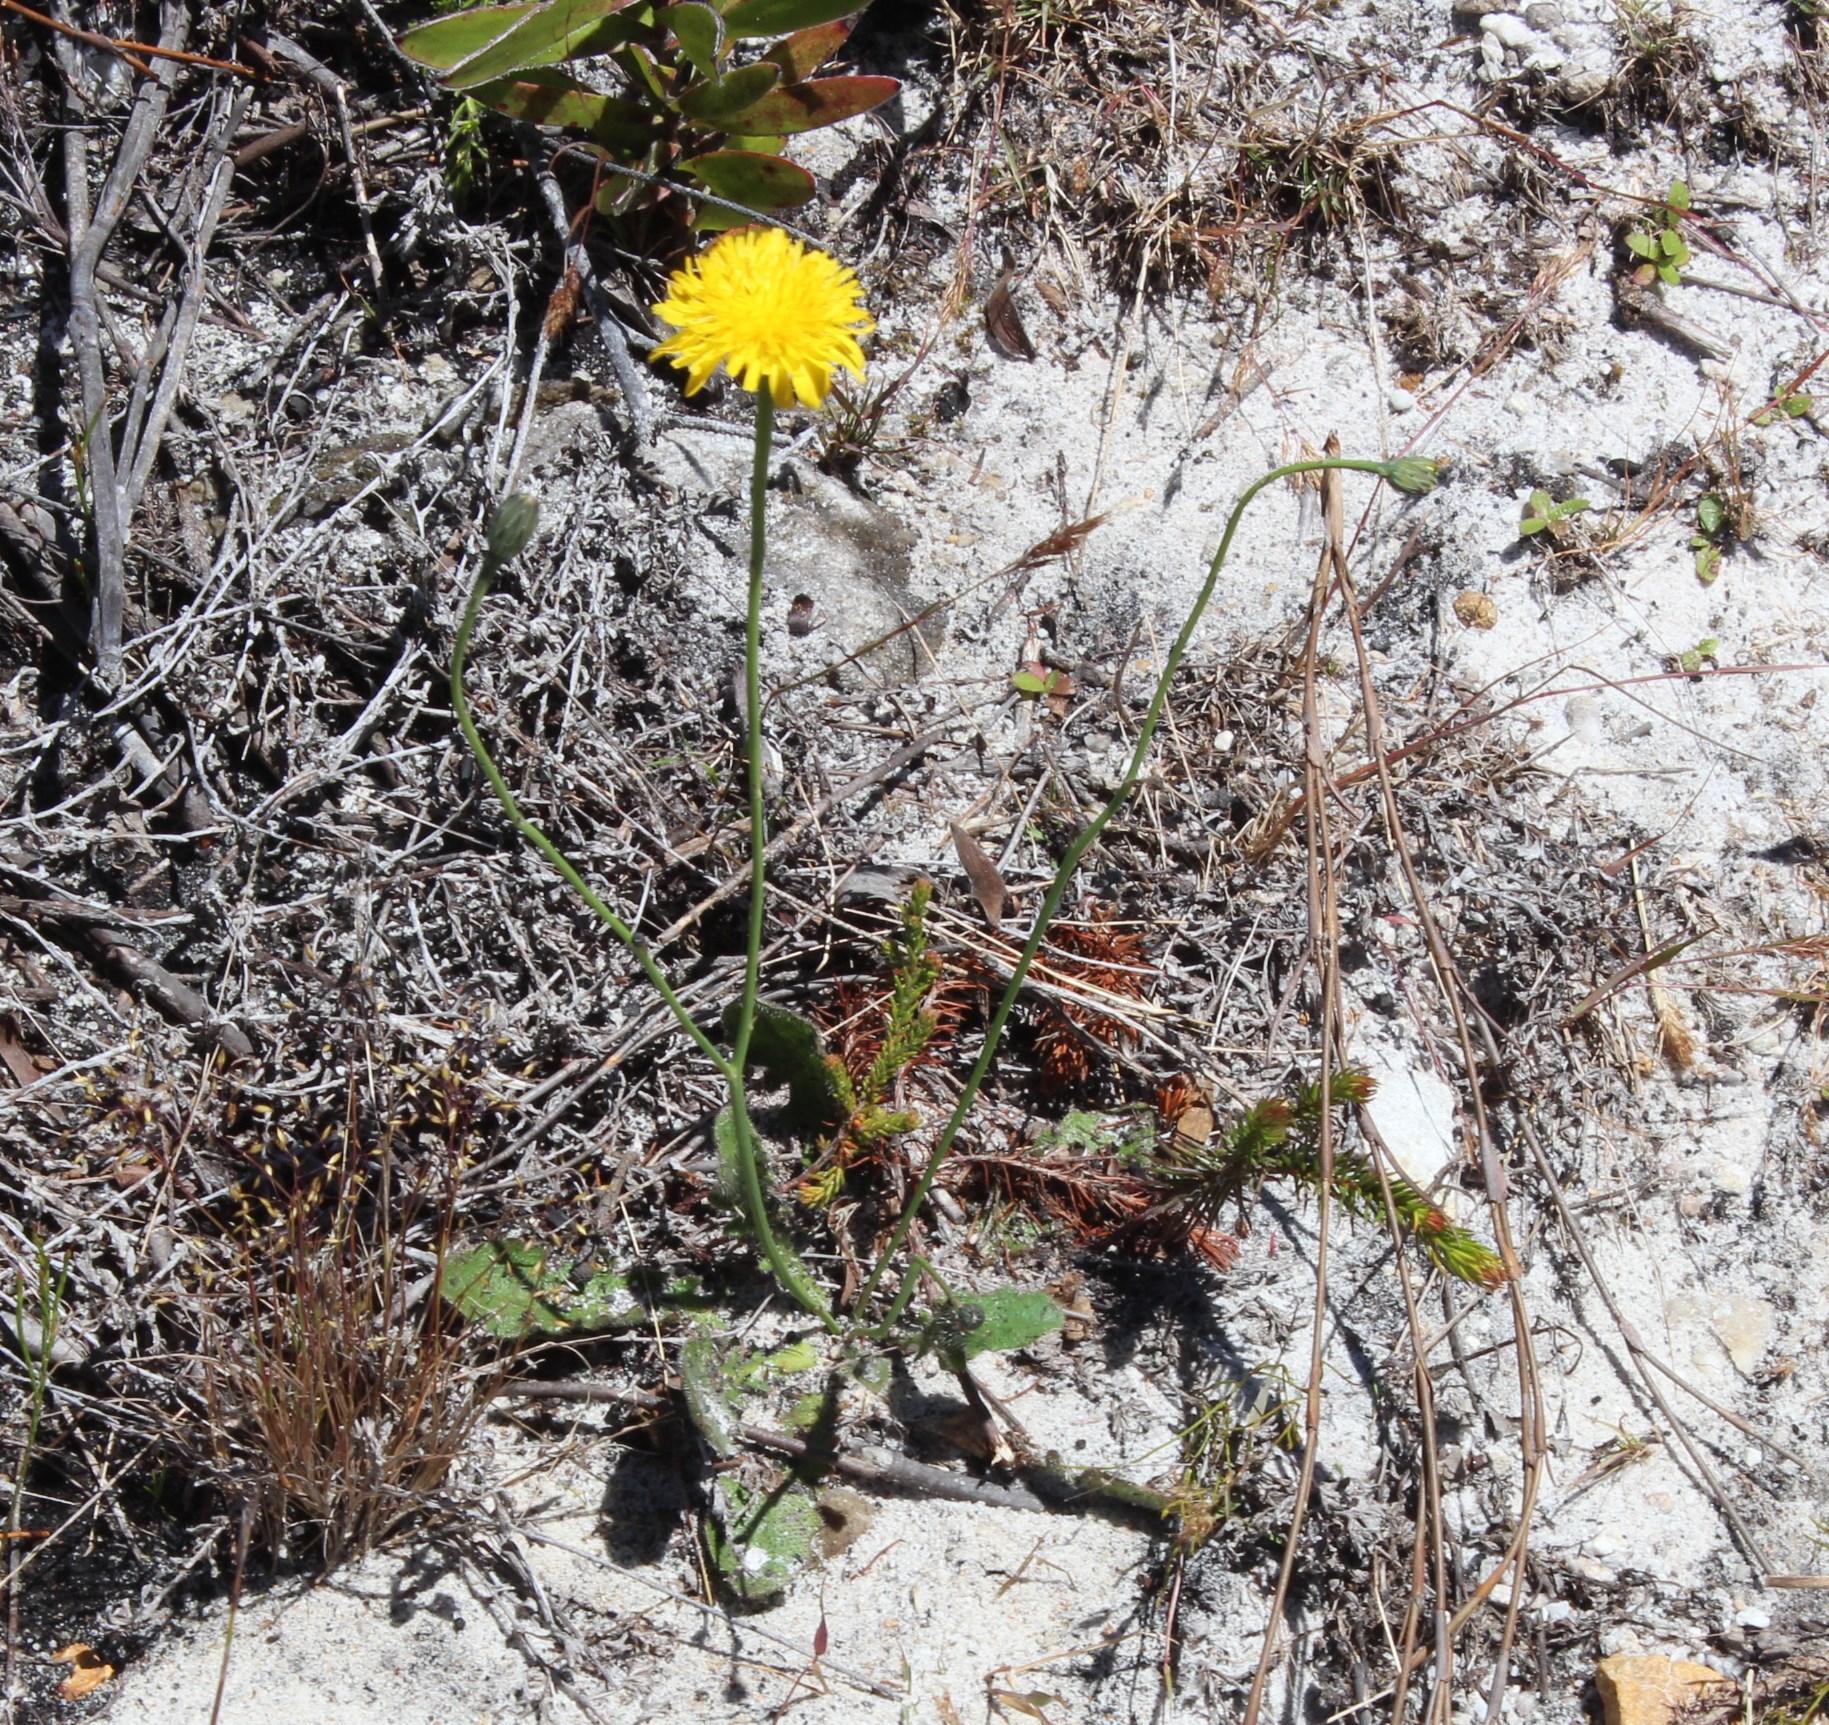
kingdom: Plantae
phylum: Tracheophyta
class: Magnoliopsida
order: Asterales
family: Asteraceae
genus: Hypochaeris
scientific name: Hypochaeris radicata
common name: Flatweed
